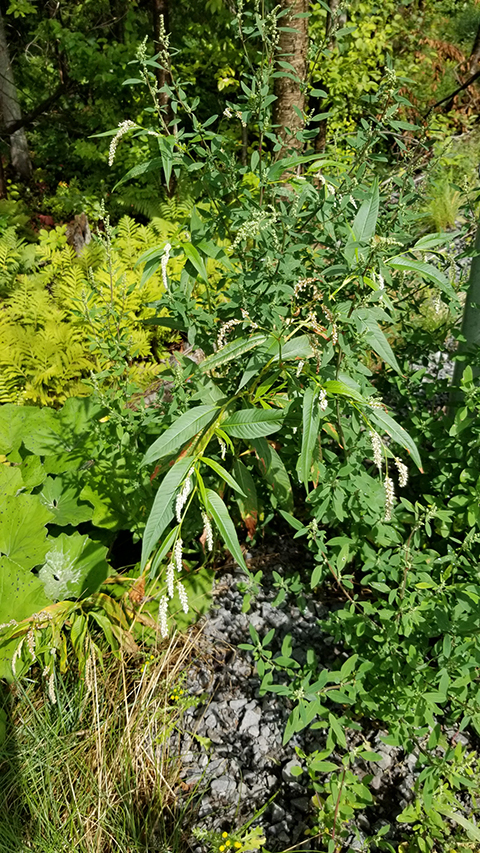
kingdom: Plantae
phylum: Tracheophyta
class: Magnoliopsida
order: Caryophyllales
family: Polygonaceae
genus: Persicaria
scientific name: Persicaria lapathifolia
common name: Curlytop knotweed
